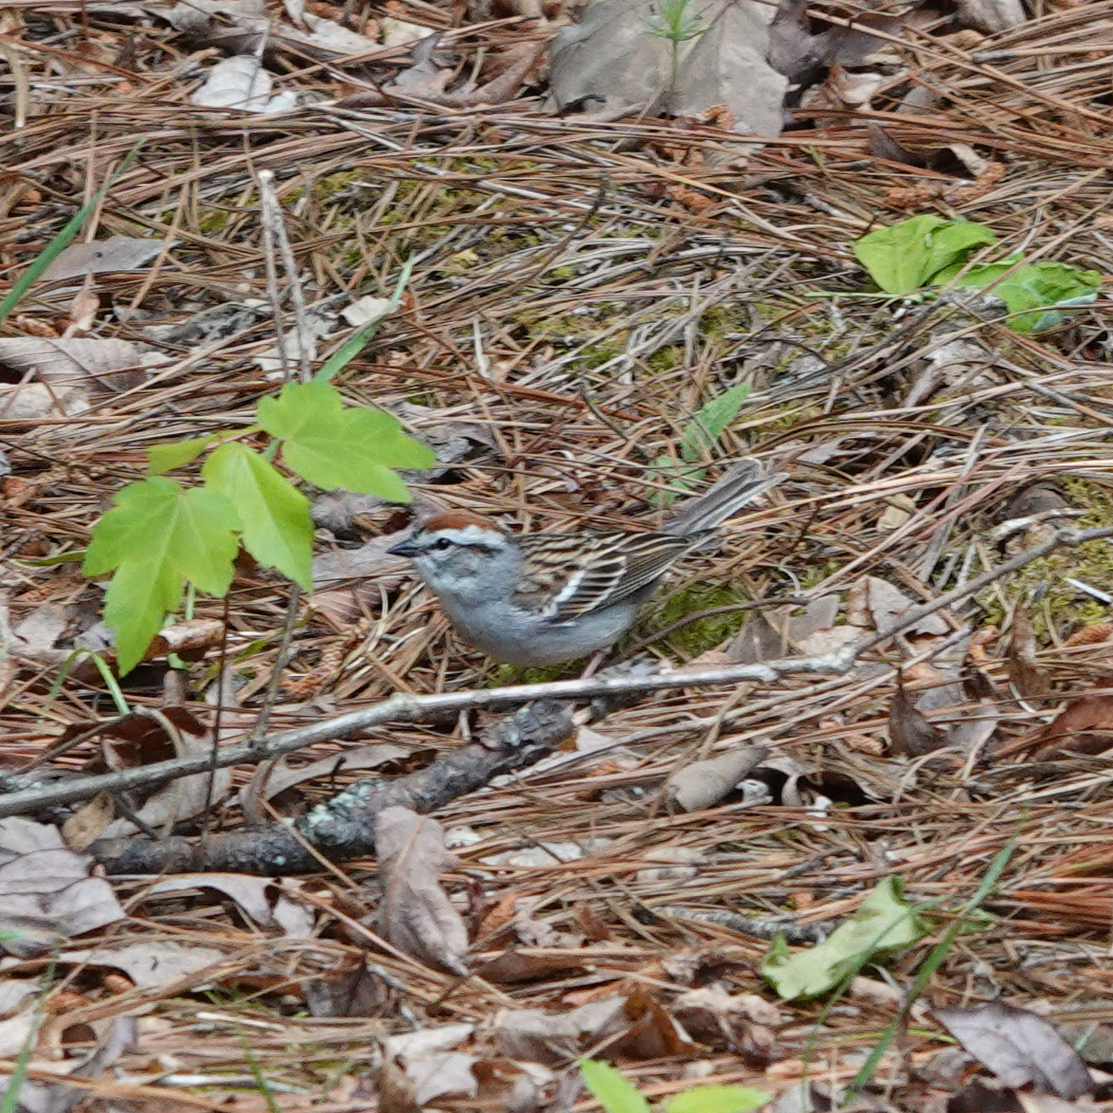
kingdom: Animalia
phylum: Chordata
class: Aves
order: Passeriformes
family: Passerellidae
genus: Spizella
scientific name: Spizella passerina
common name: Chipping sparrow
